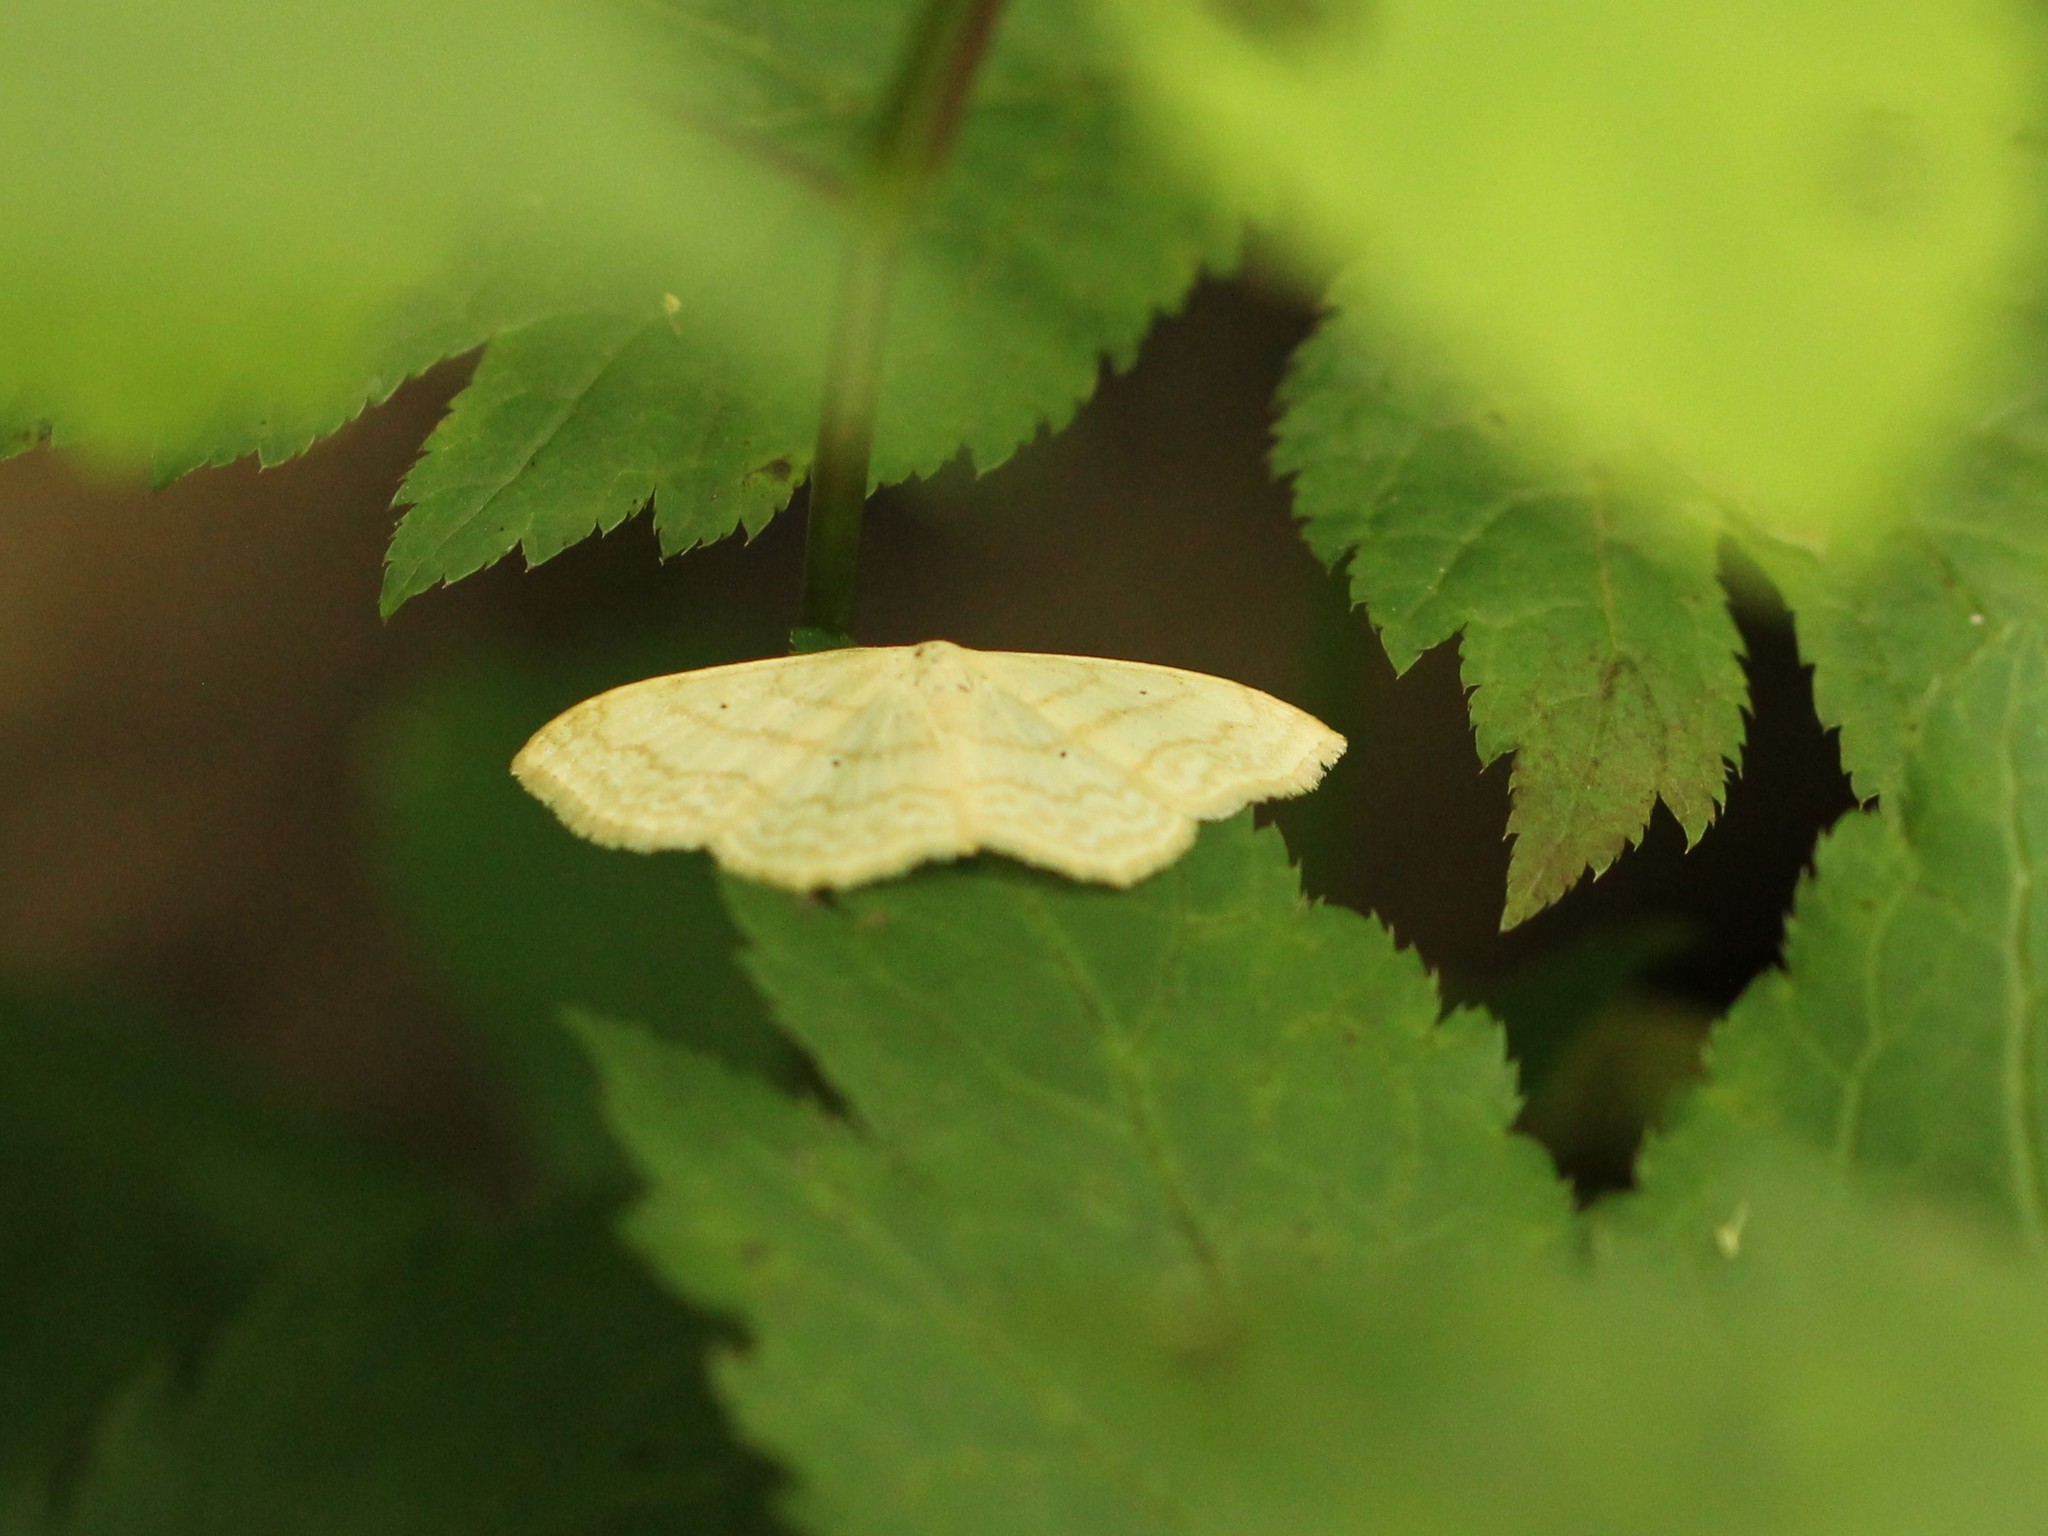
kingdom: Animalia
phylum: Arthropoda
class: Insecta
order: Lepidoptera
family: Geometridae
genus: Scopula
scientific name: Scopula limboundata
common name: Large lace border
